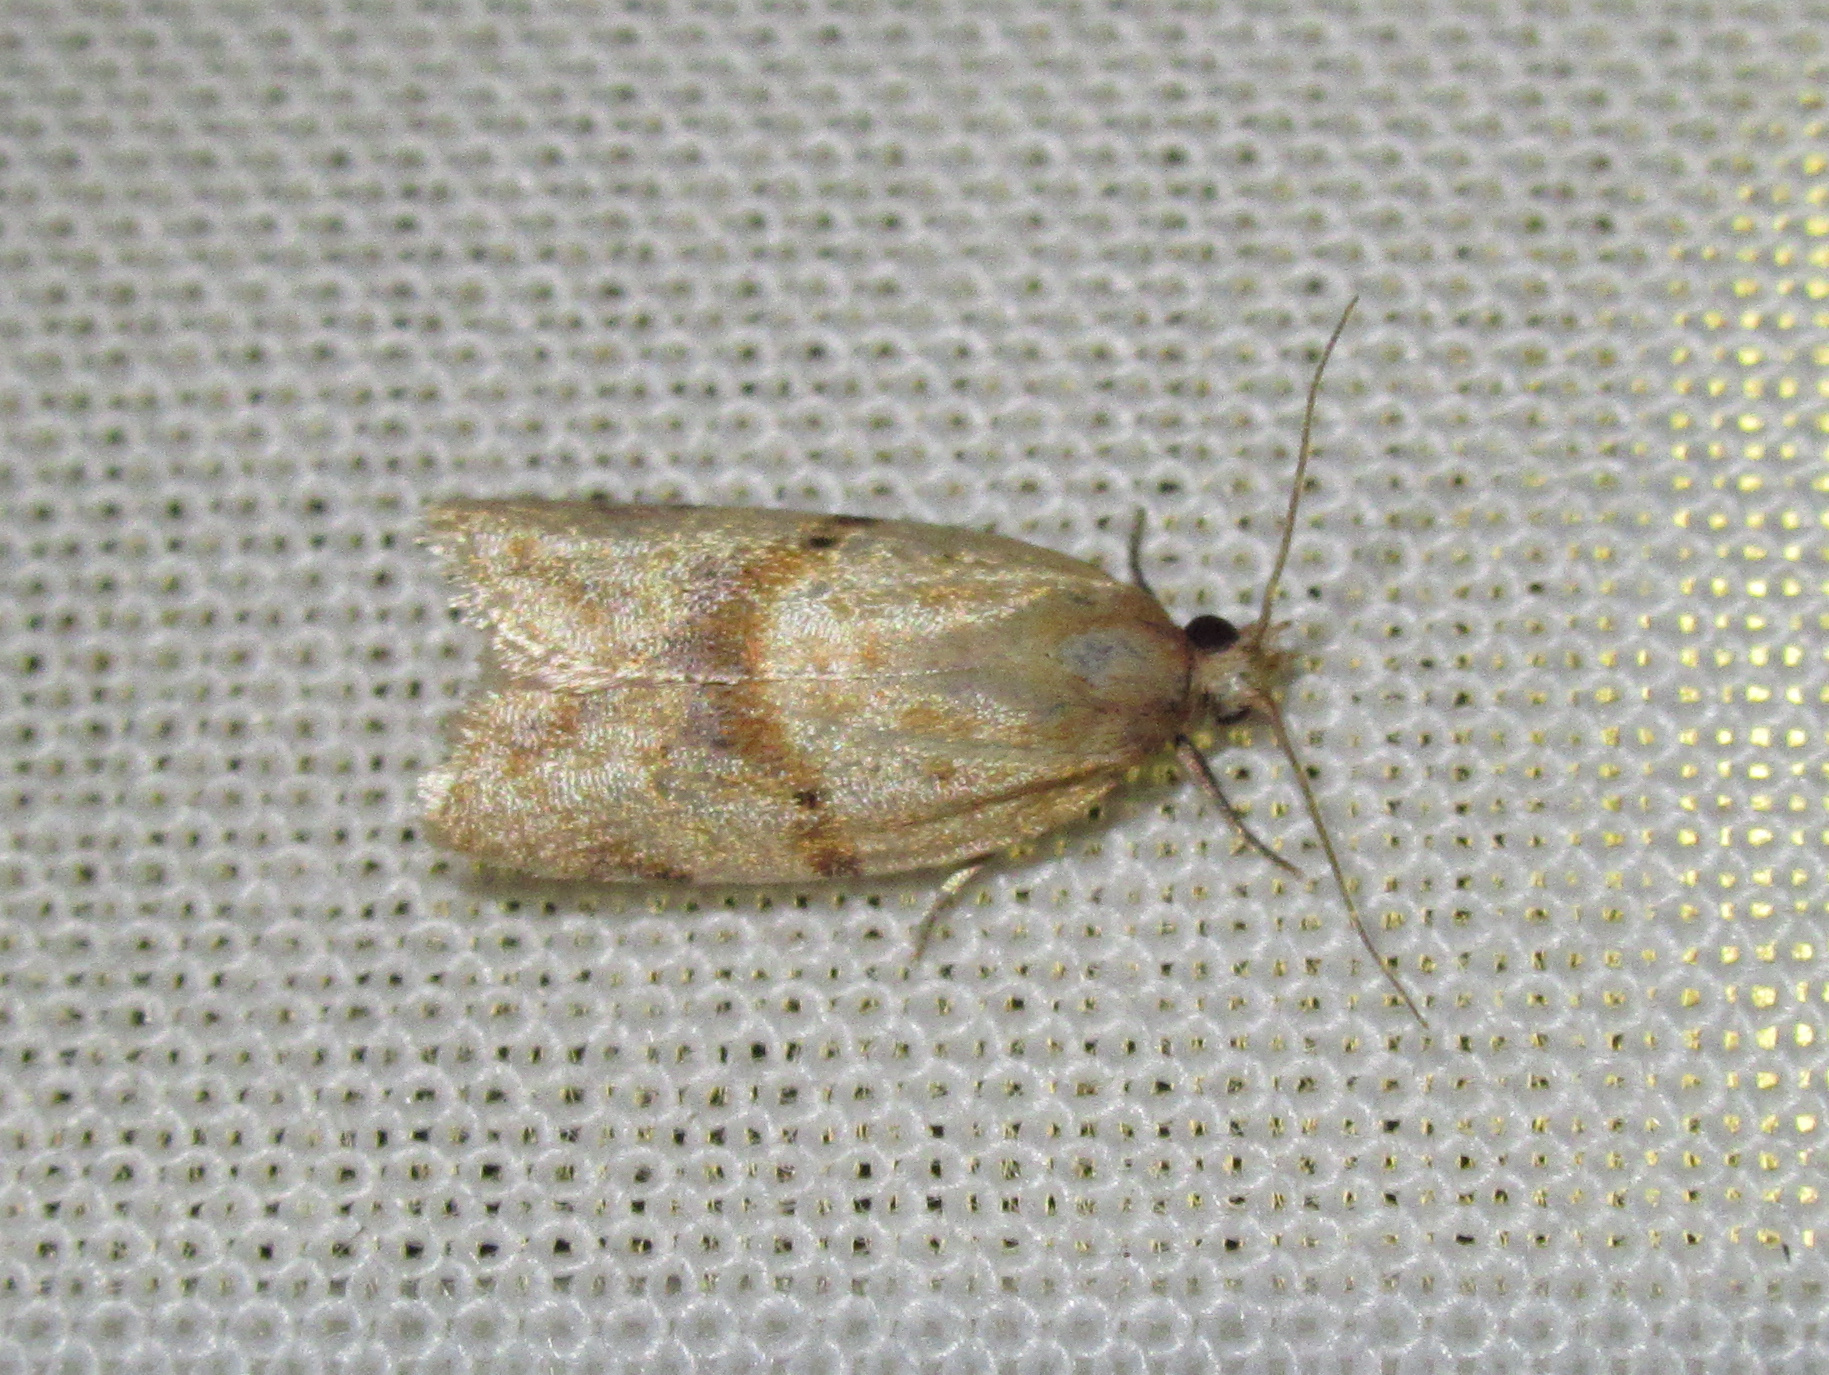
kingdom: Animalia
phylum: Arthropoda
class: Insecta
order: Lepidoptera
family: Tortricidae
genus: Clepsis
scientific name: Clepsis
